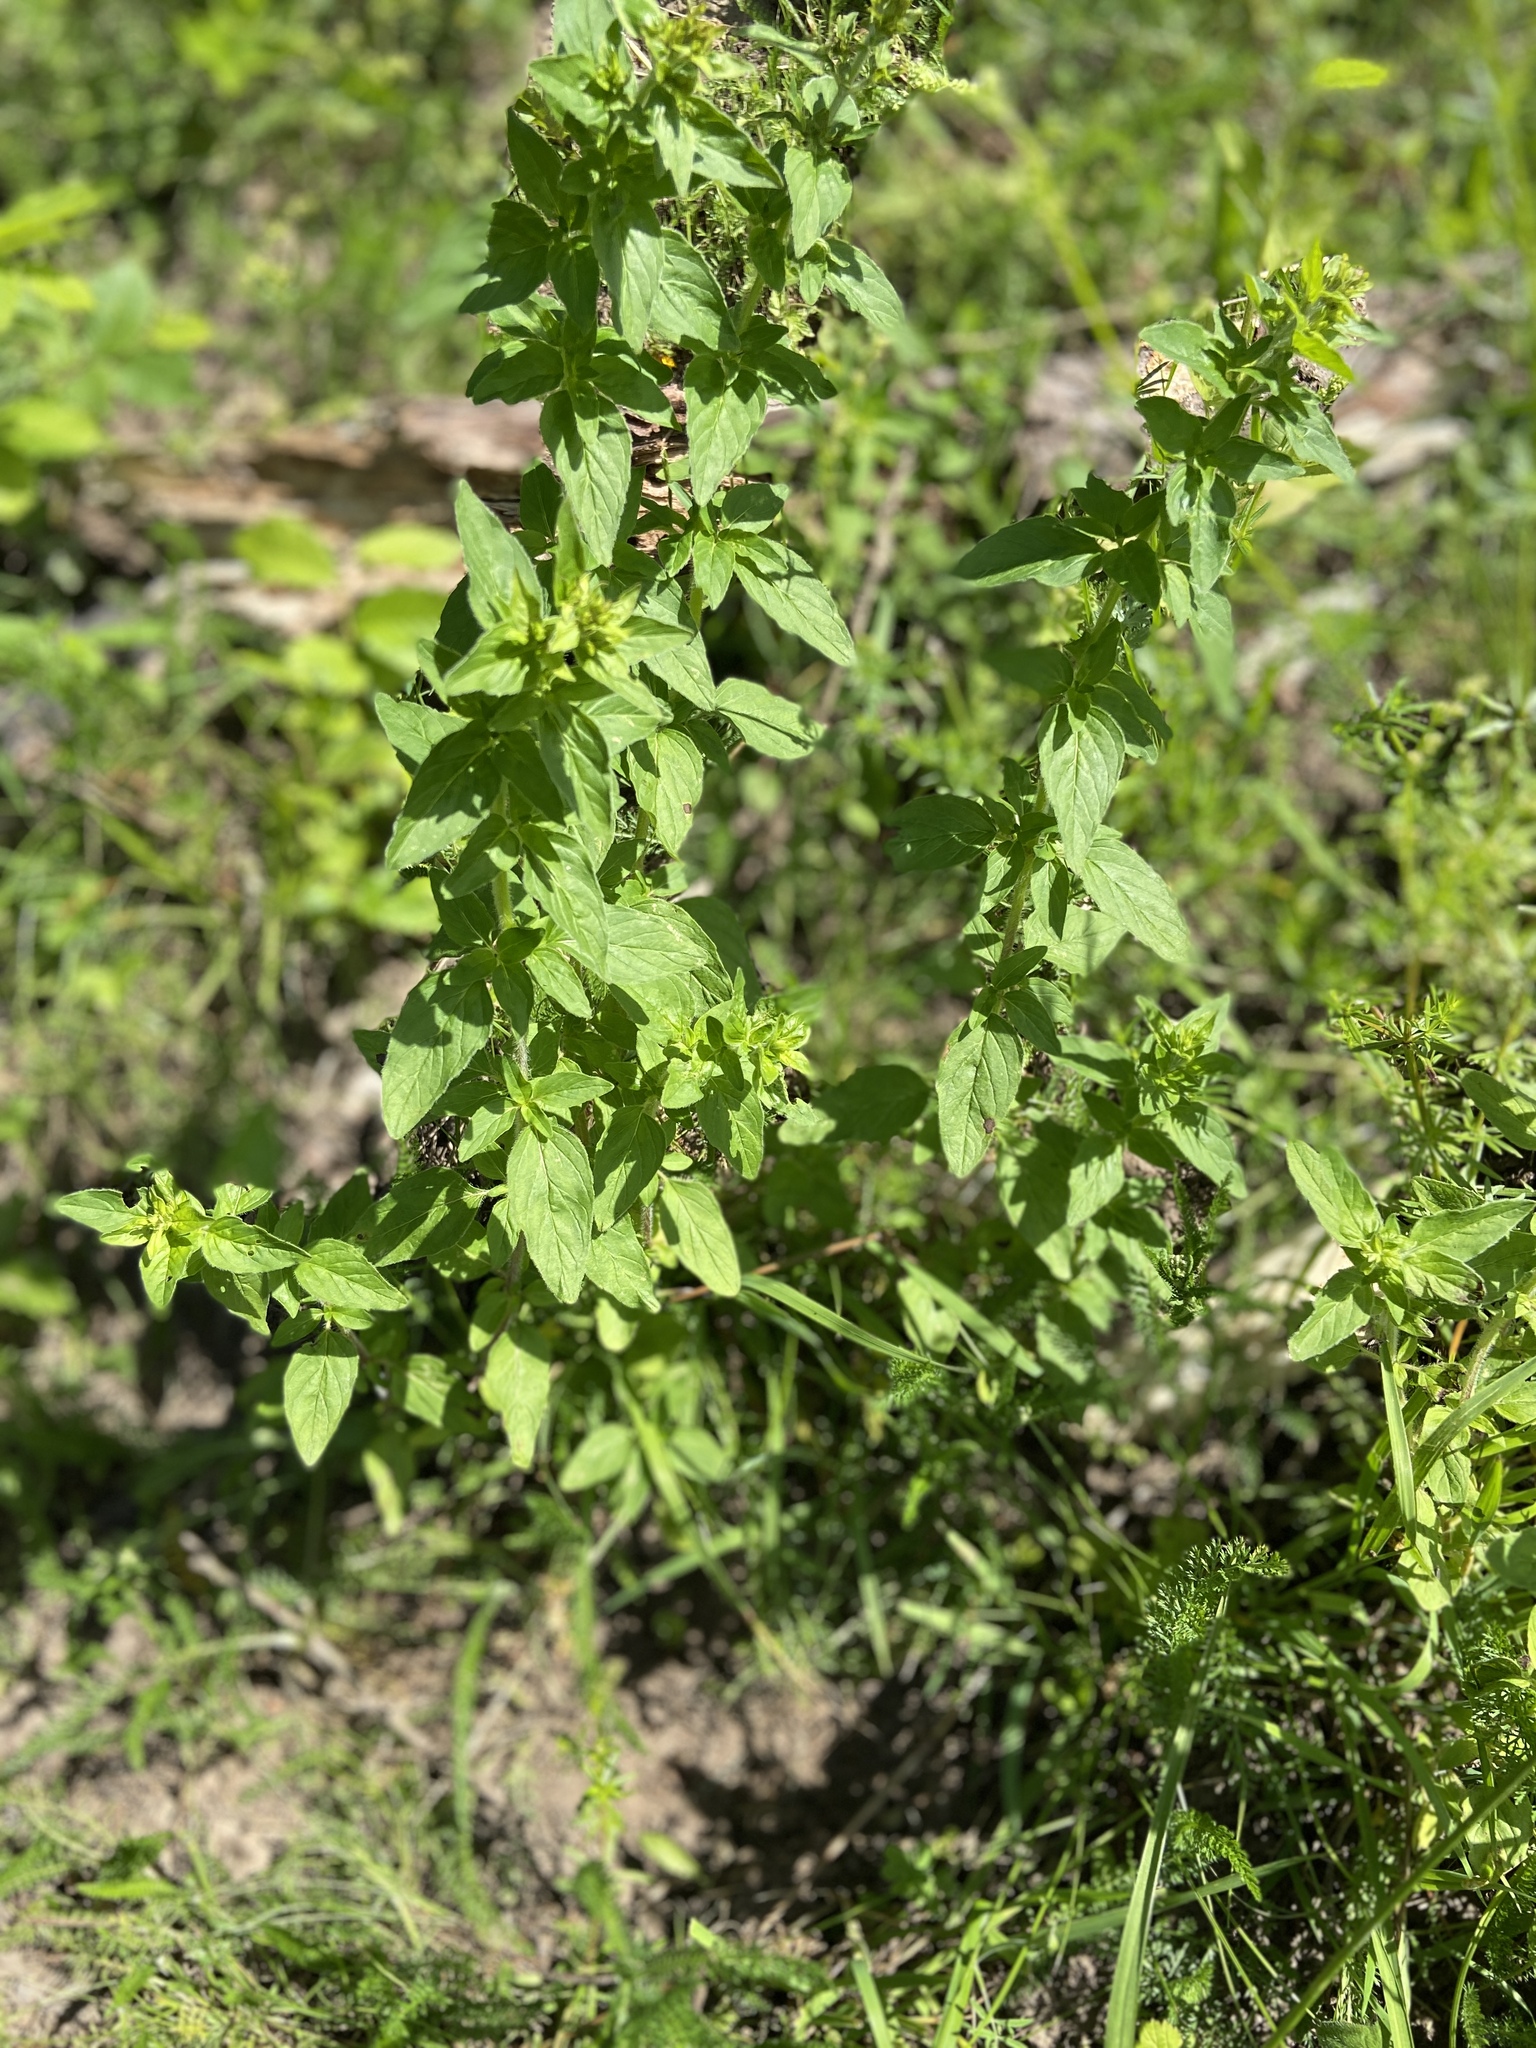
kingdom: Plantae
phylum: Tracheophyta
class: Magnoliopsida
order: Lamiales
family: Lamiaceae
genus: Origanum
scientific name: Origanum vulgare
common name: Wild marjoram
